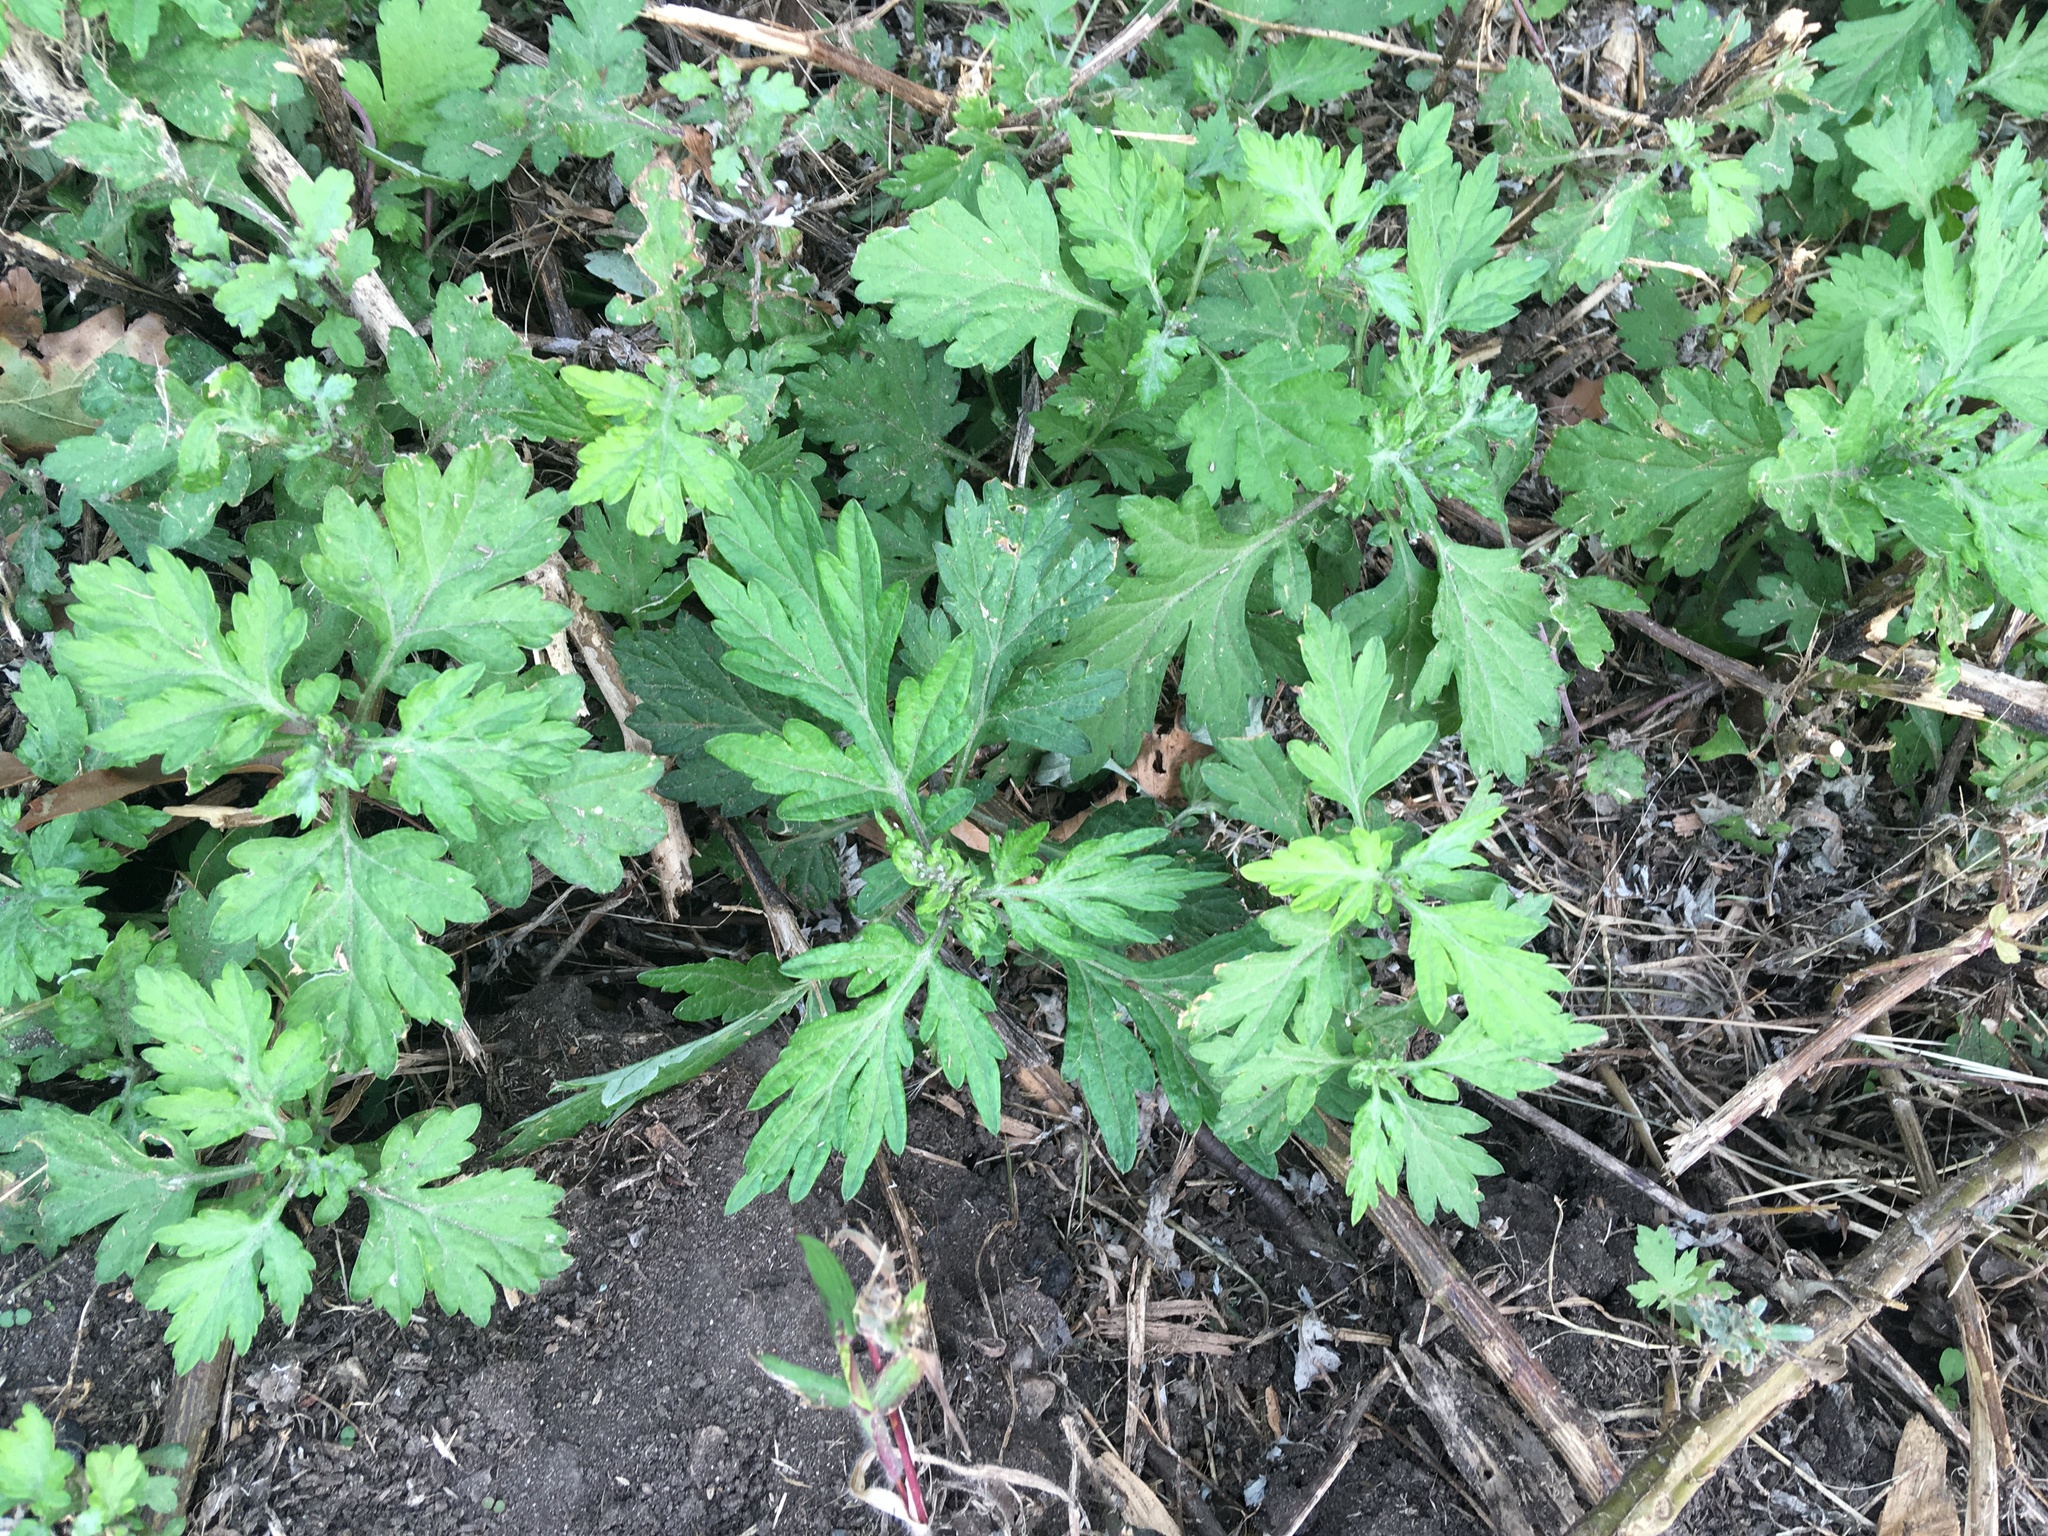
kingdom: Plantae
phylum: Tracheophyta
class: Magnoliopsida
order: Asterales
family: Asteraceae
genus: Artemisia
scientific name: Artemisia vulgaris
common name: Mugwort
